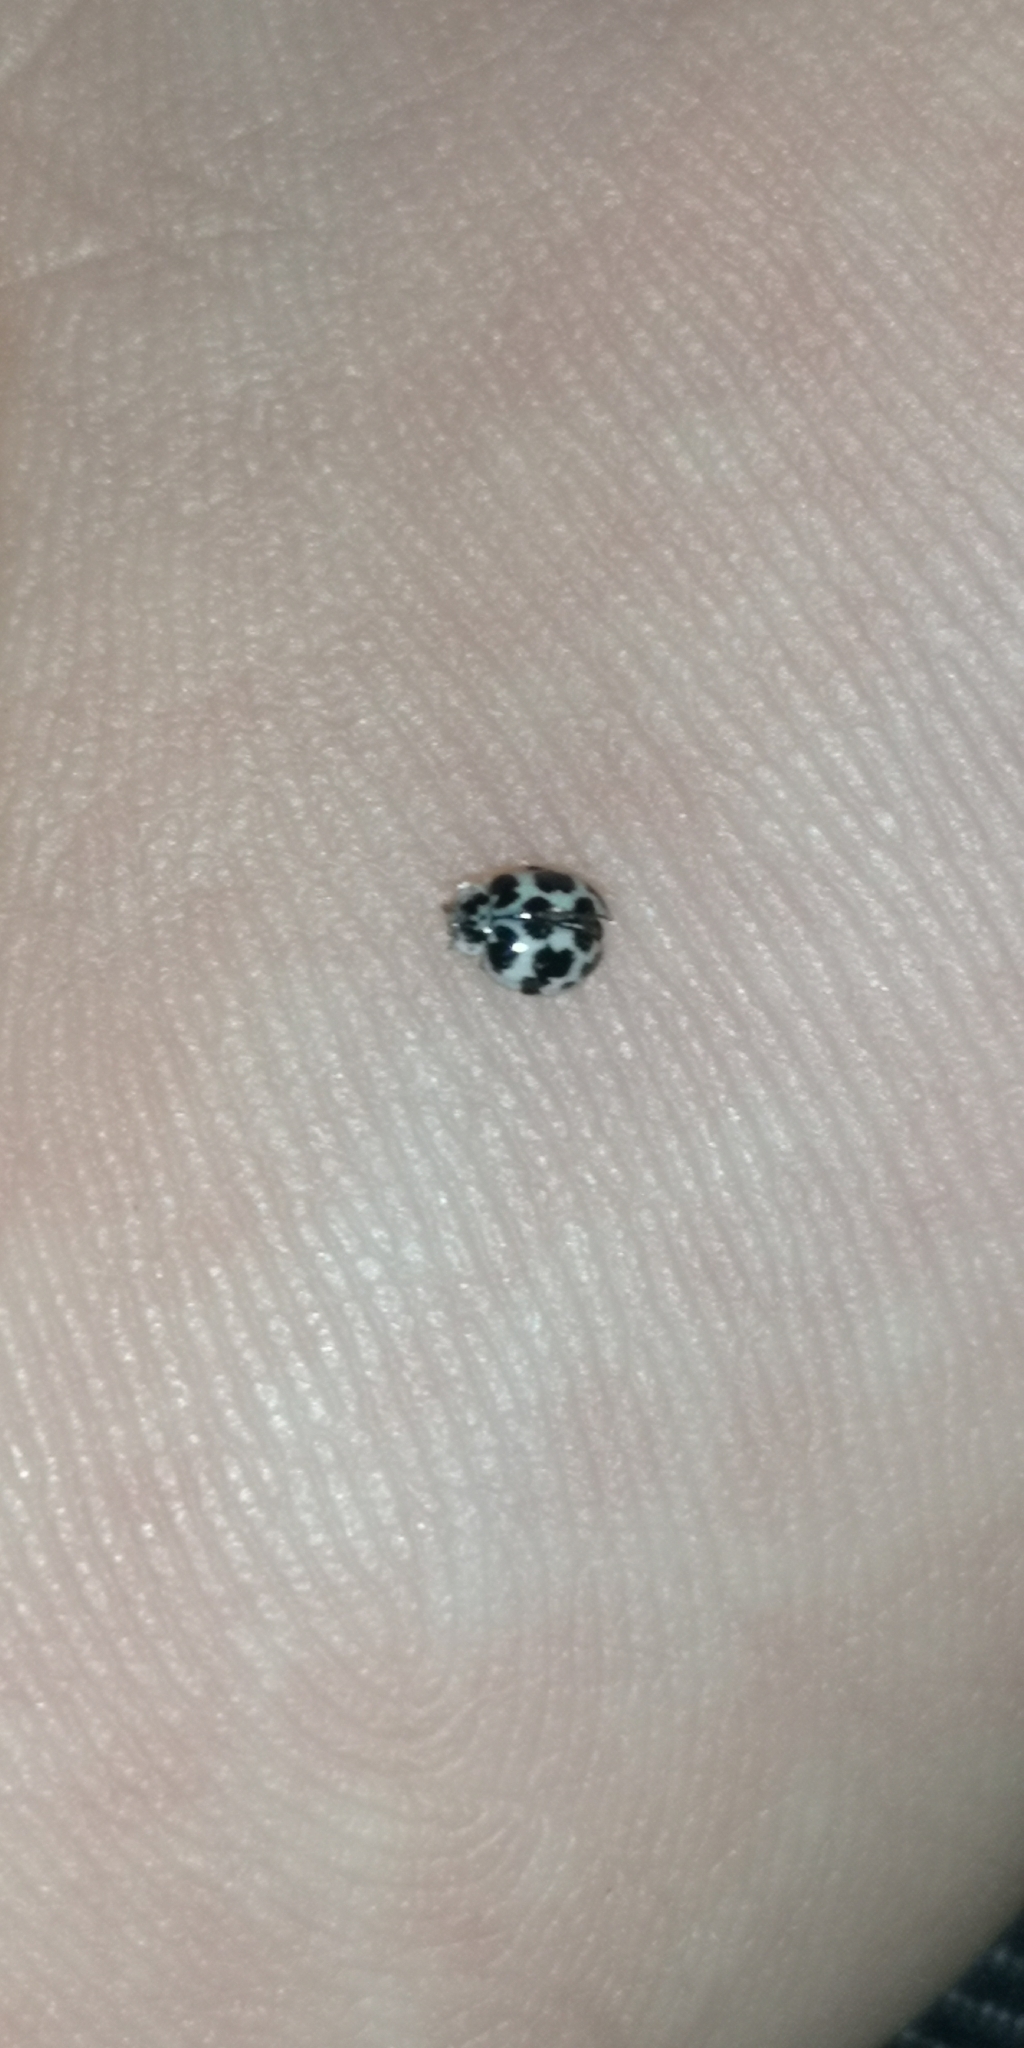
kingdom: Animalia
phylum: Arthropoda
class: Insecta
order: Coleoptera
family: Coccinellidae
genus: Psyllobora
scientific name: Psyllobora
